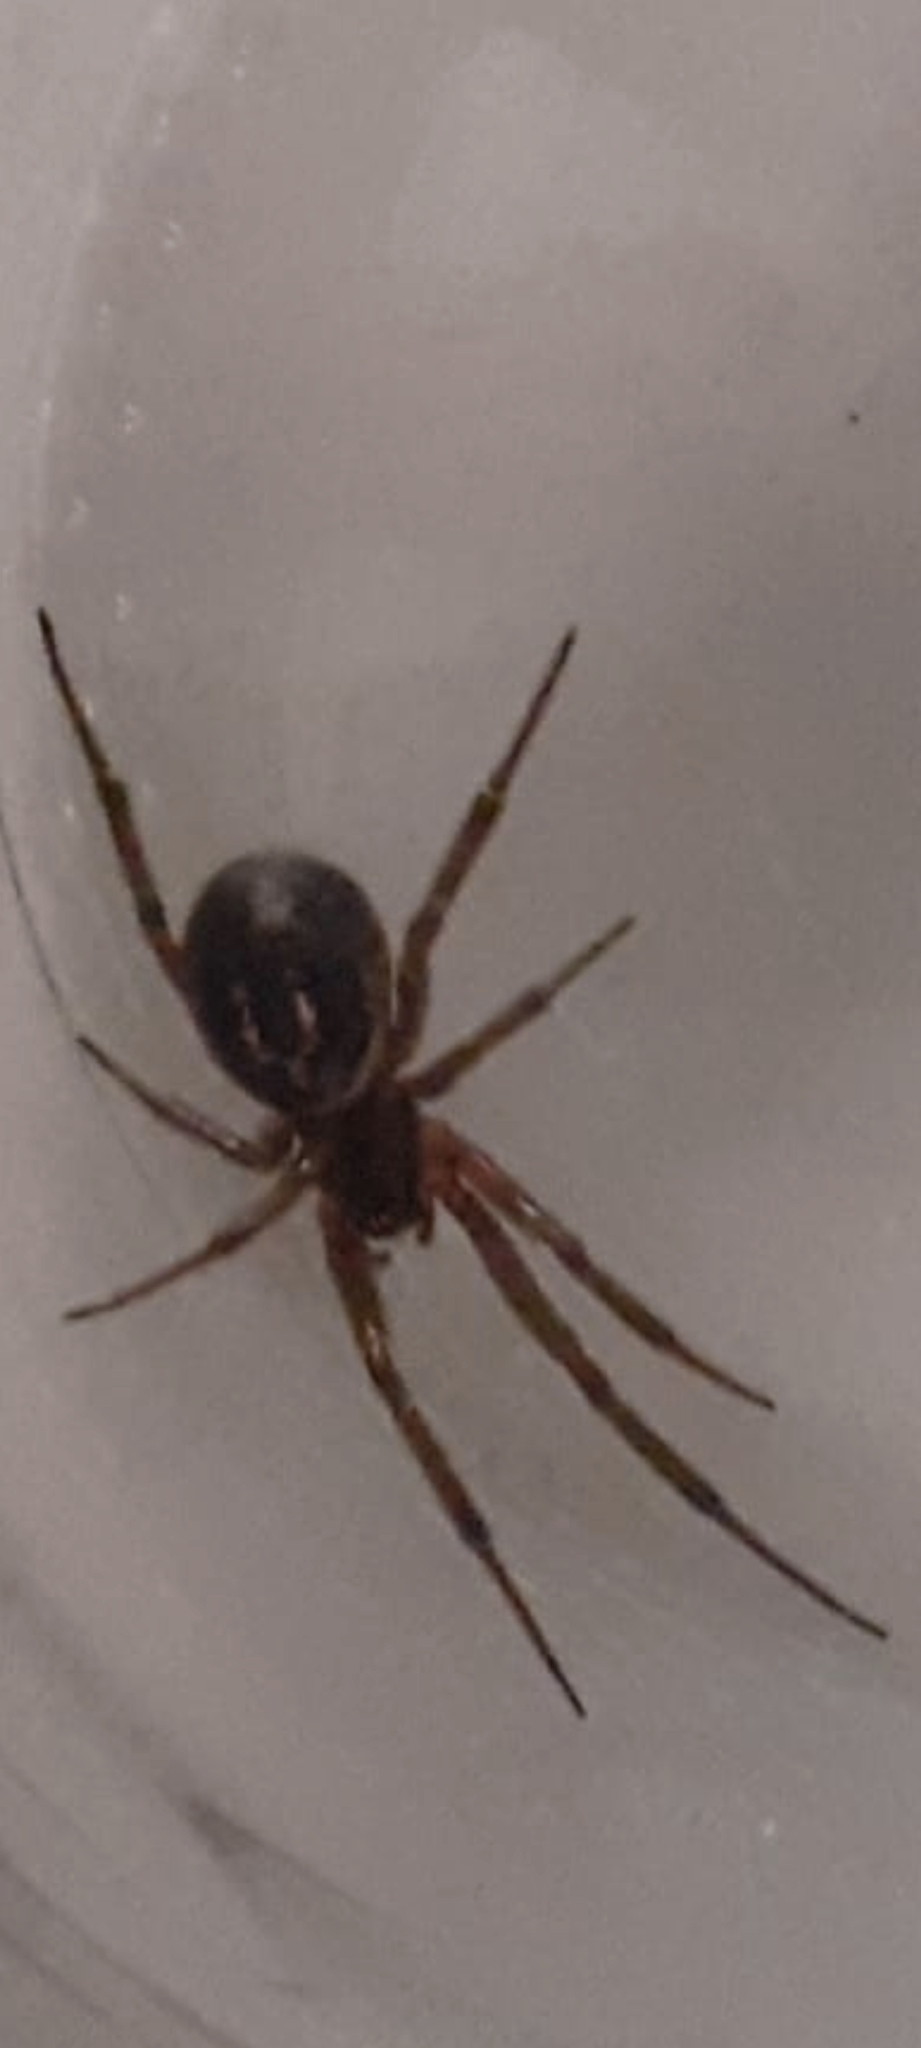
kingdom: Animalia
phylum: Arthropoda
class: Arachnida
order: Araneae
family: Theridiidae
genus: Steatoda
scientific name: Steatoda nobilis
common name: Cobweb weaver
